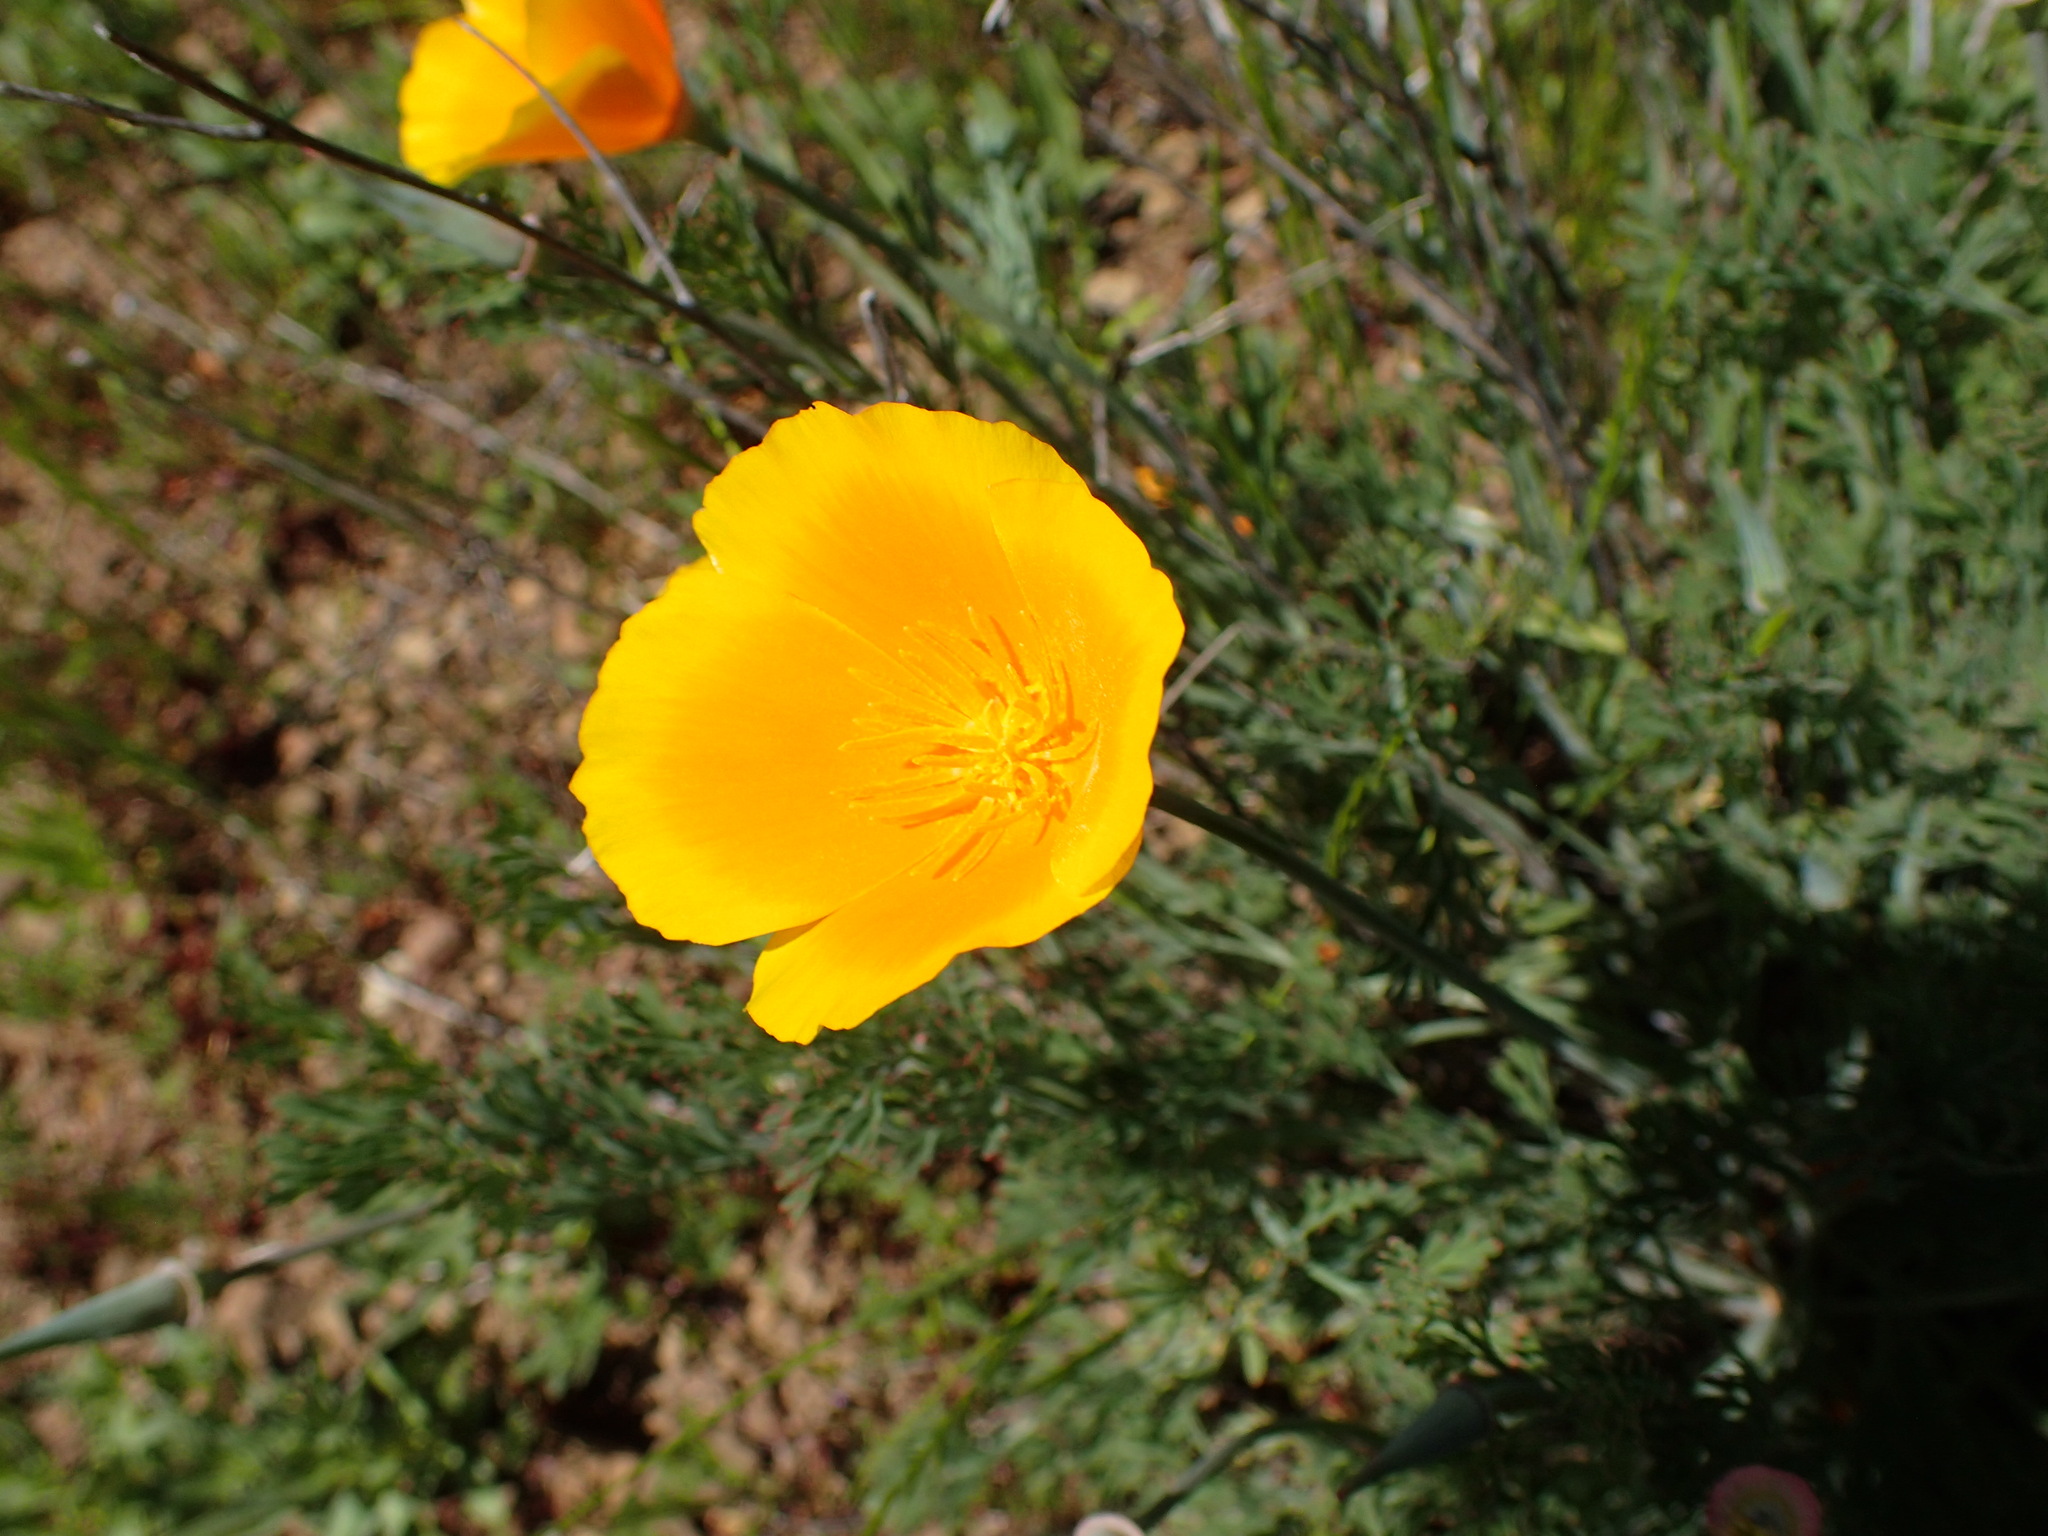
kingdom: Plantae
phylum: Tracheophyta
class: Magnoliopsida
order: Ranunculales
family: Papaveraceae
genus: Eschscholzia
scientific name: Eschscholzia californica
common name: California poppy
